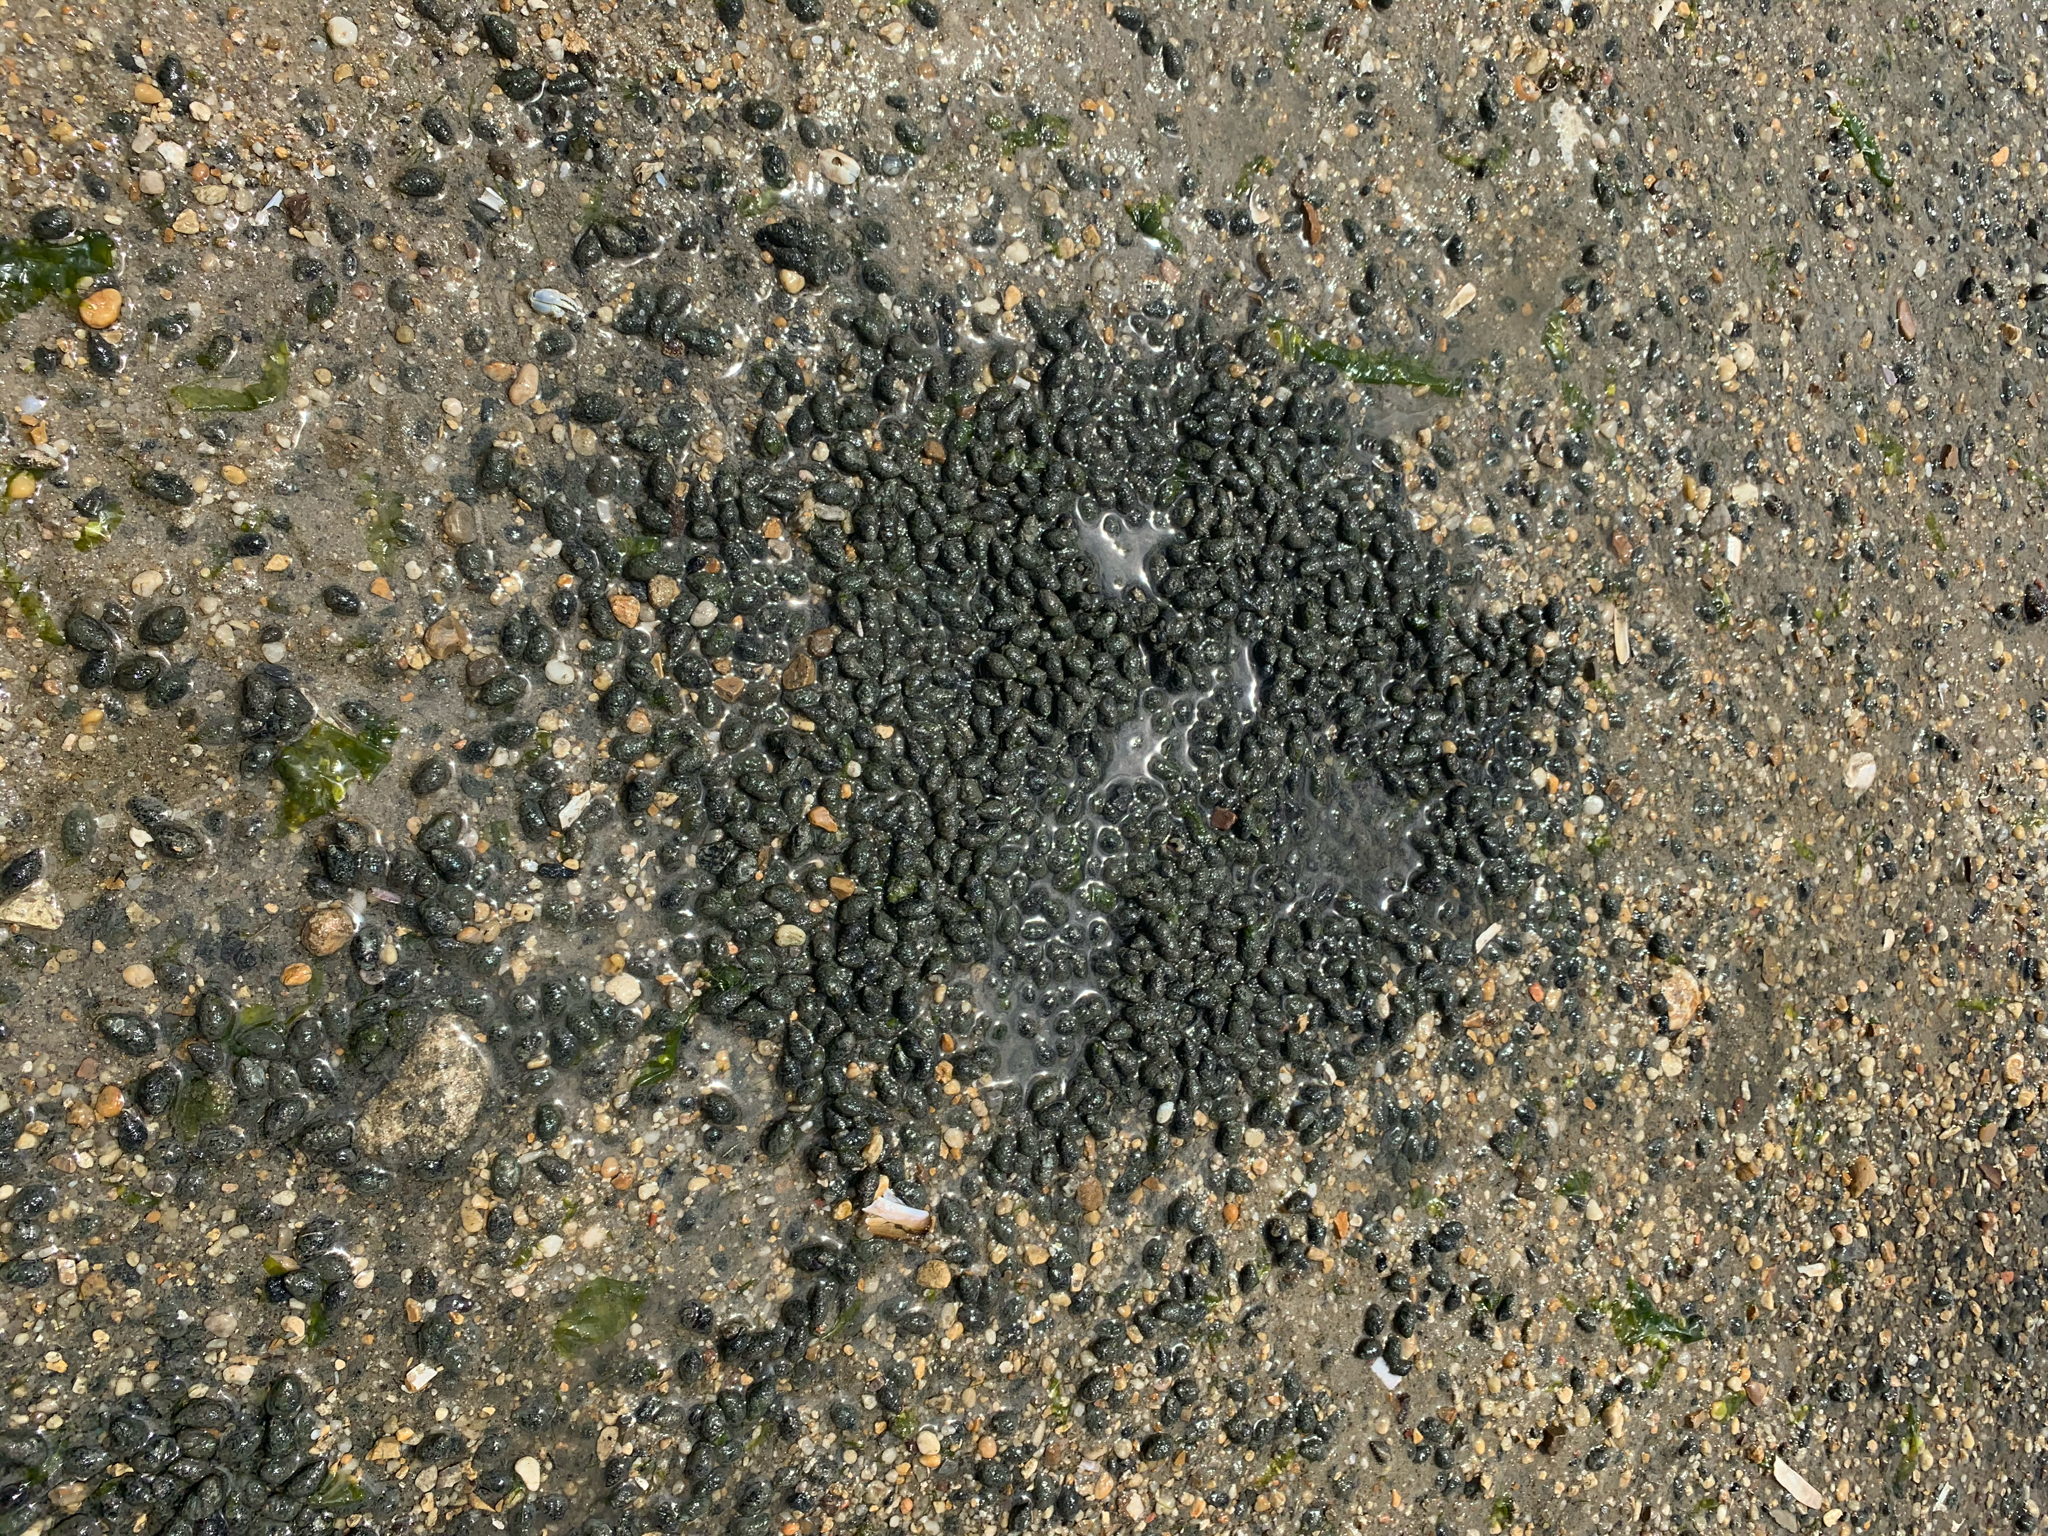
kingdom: Animalia
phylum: Mollusca
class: Gastropoda
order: Neogastropoda
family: Nassariidae
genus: Ilyanassa
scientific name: Ilyanassa obsoleta
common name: Eastern mudsnail
